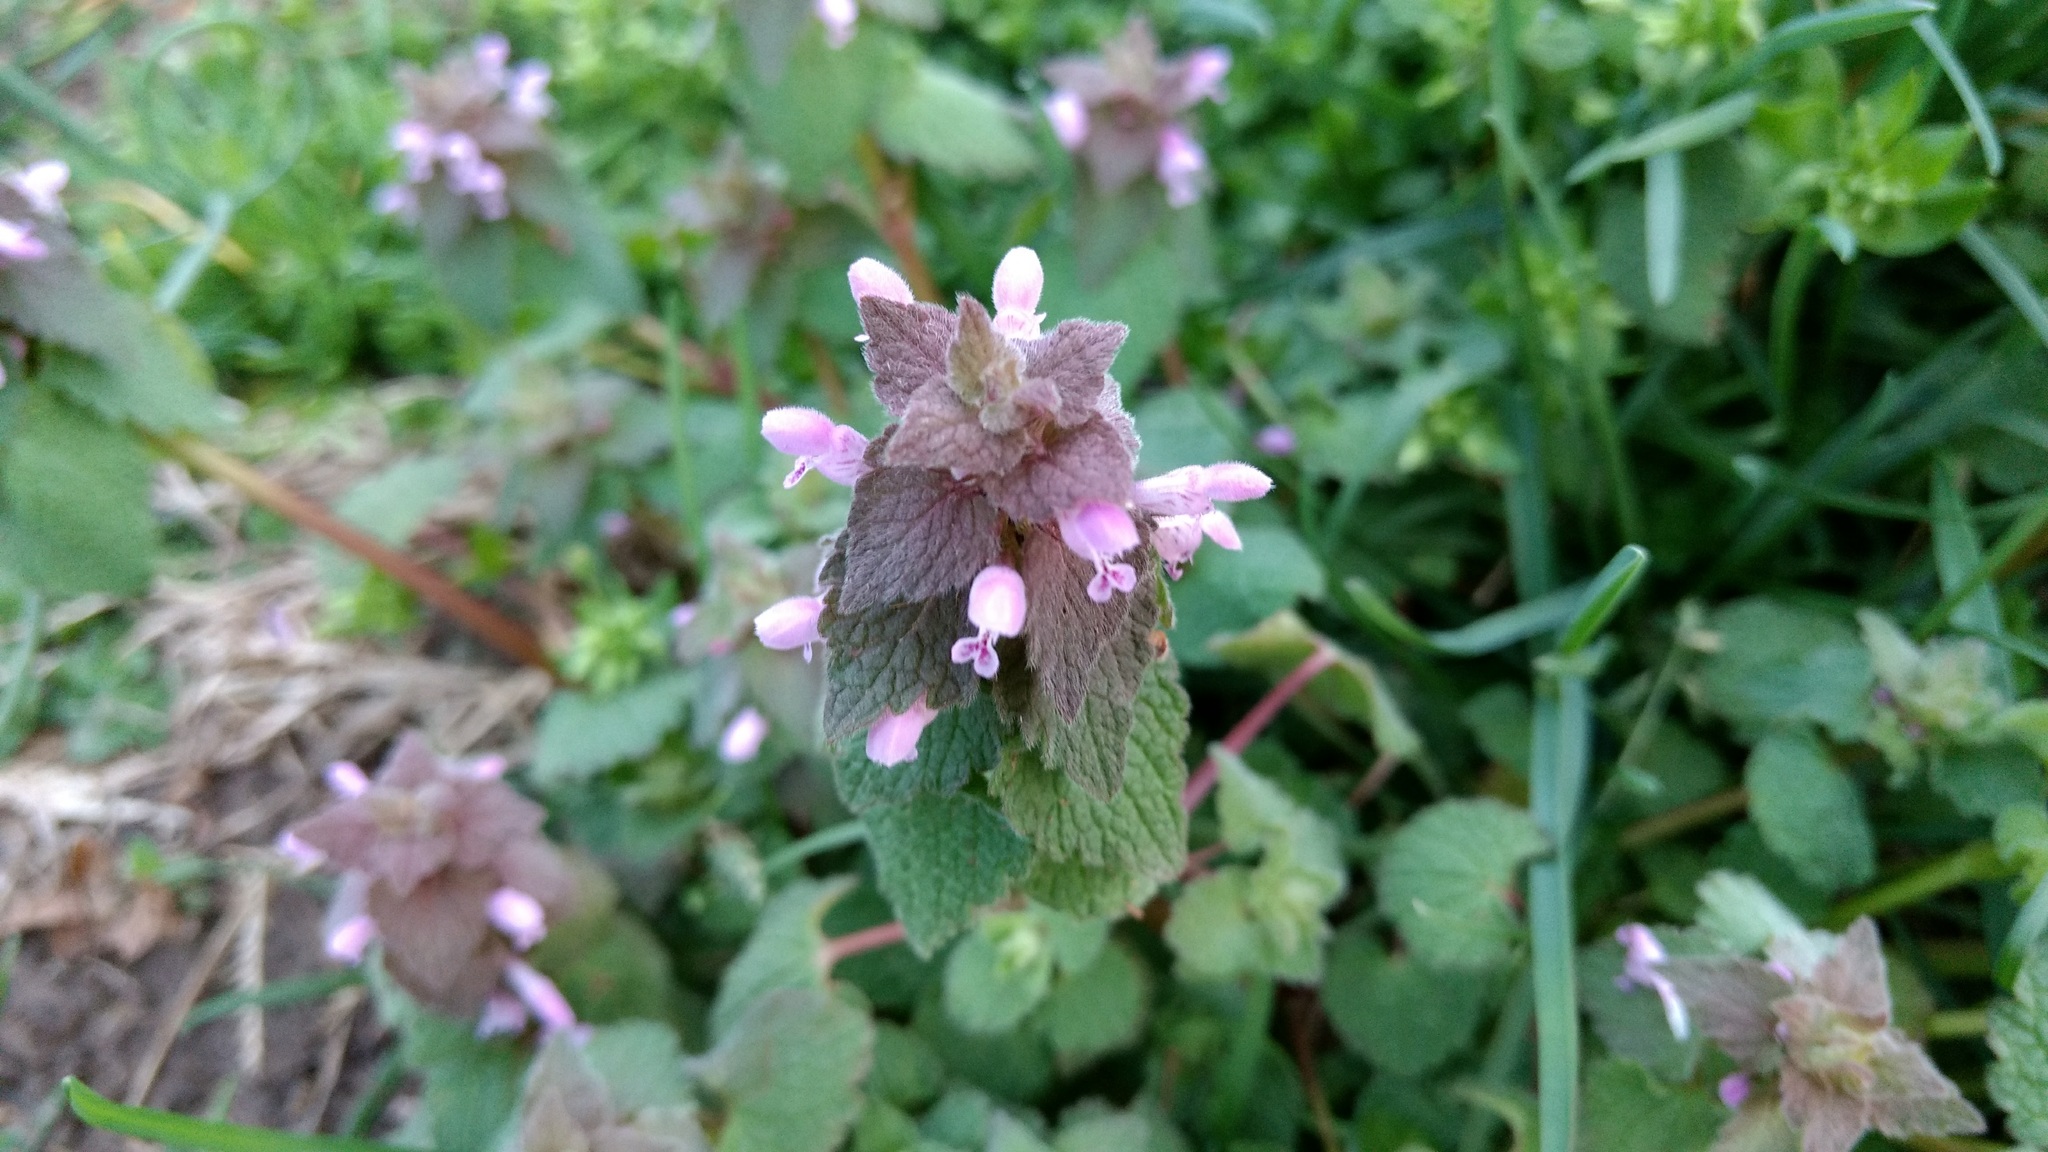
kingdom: Plantae
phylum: Tracheophyta
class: Magnoliopsida
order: Lamiales
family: Lamiaceae
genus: Lamium
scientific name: Lamium purpureum
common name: Red dead-nettle
